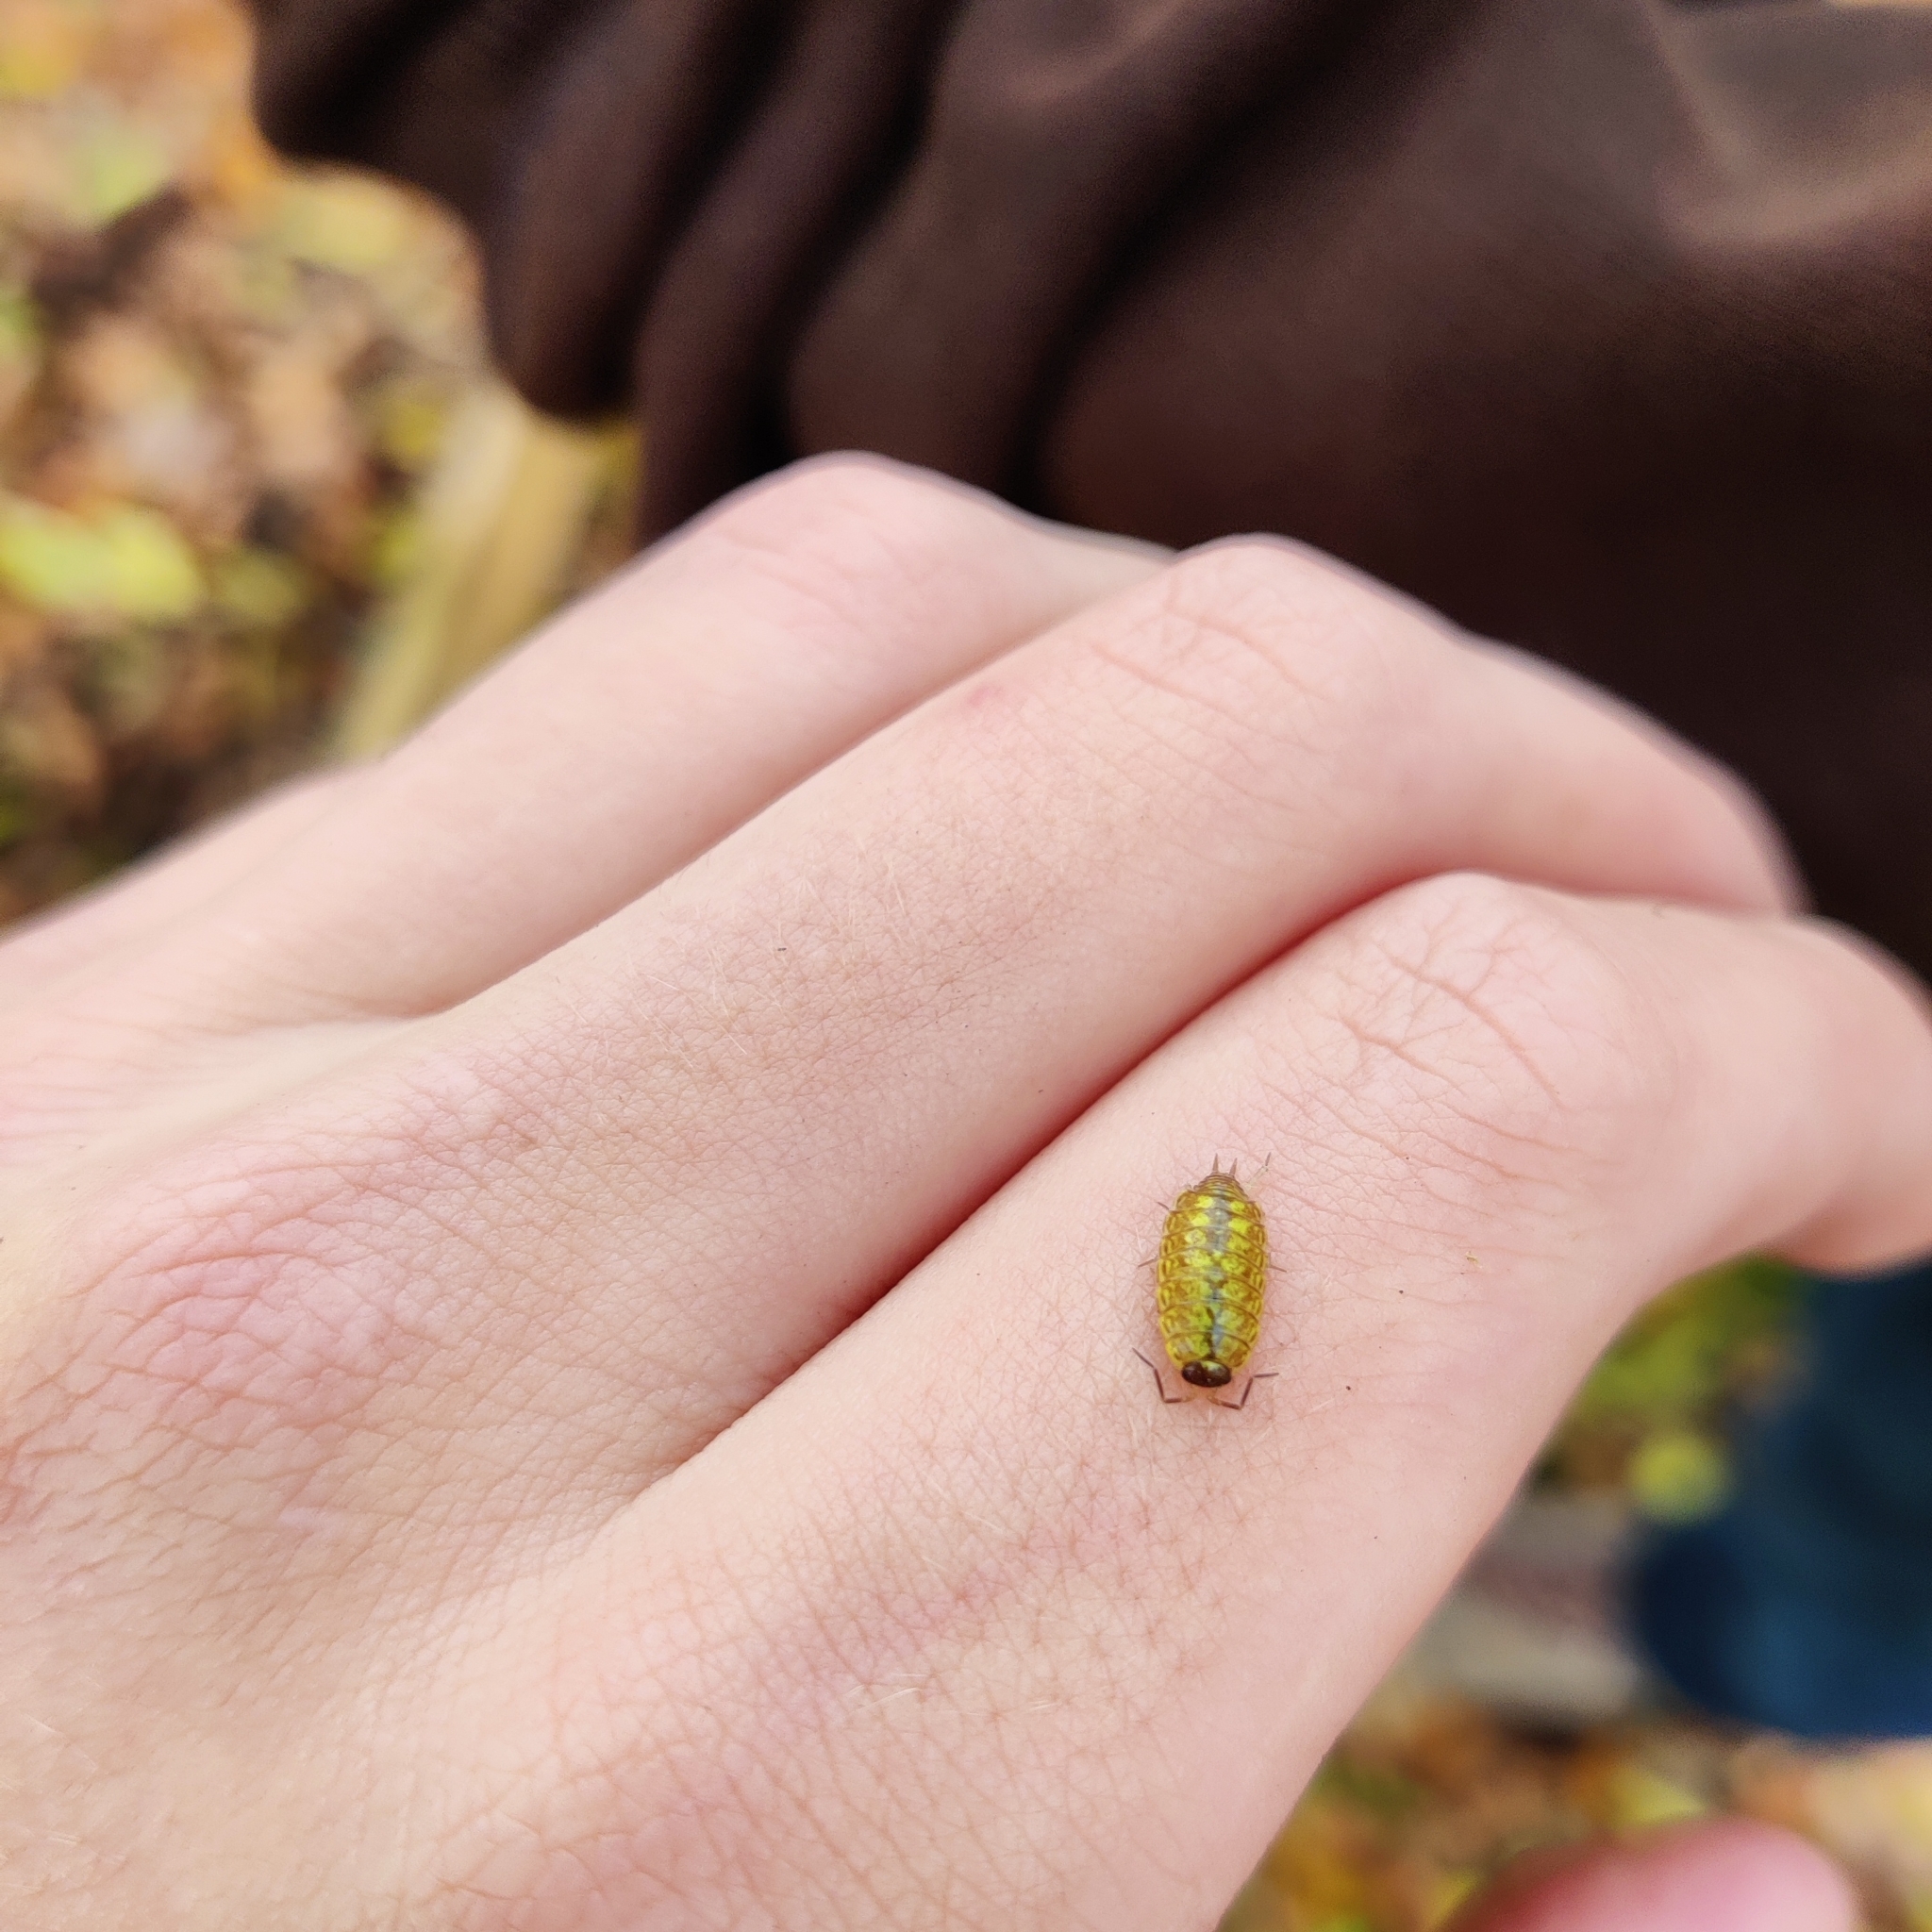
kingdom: Animalia
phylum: Arthropoda
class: Malacostraca
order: Isopoda
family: Philosciidae
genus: Philoscia
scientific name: Philoscia muscorum
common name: Common striped woodlouse
